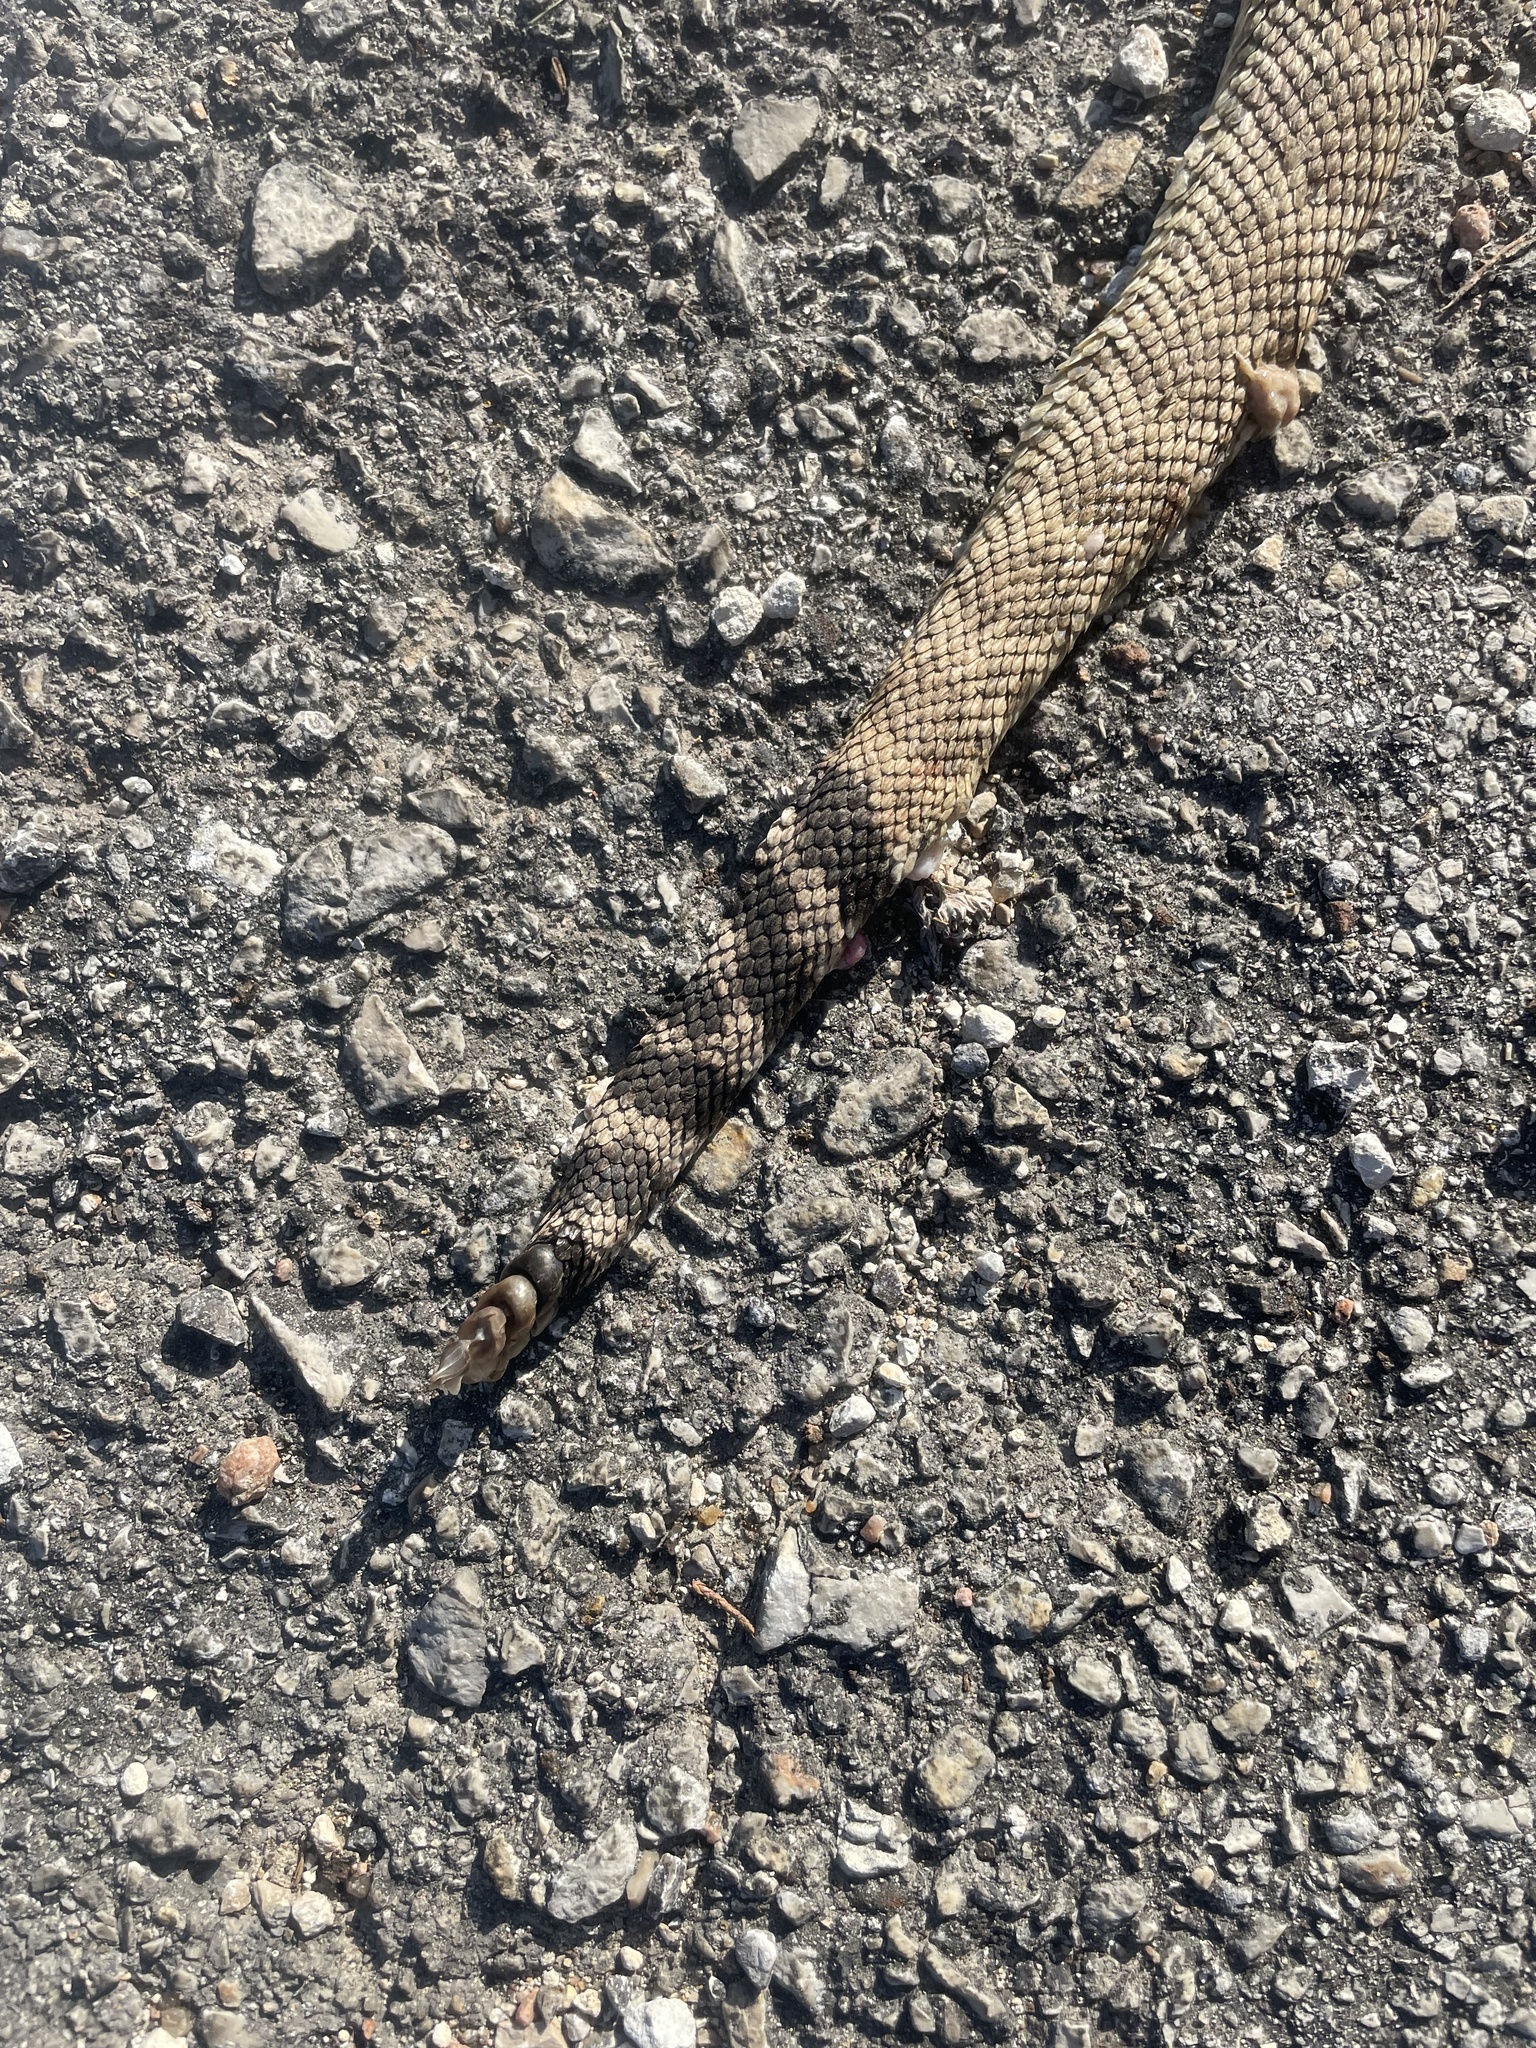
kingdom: Animalia
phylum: Chordata
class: Squamata
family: Viperidae
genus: Crotalus
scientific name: Crotalus atrox
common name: Western diamond-backed rattlesnake
